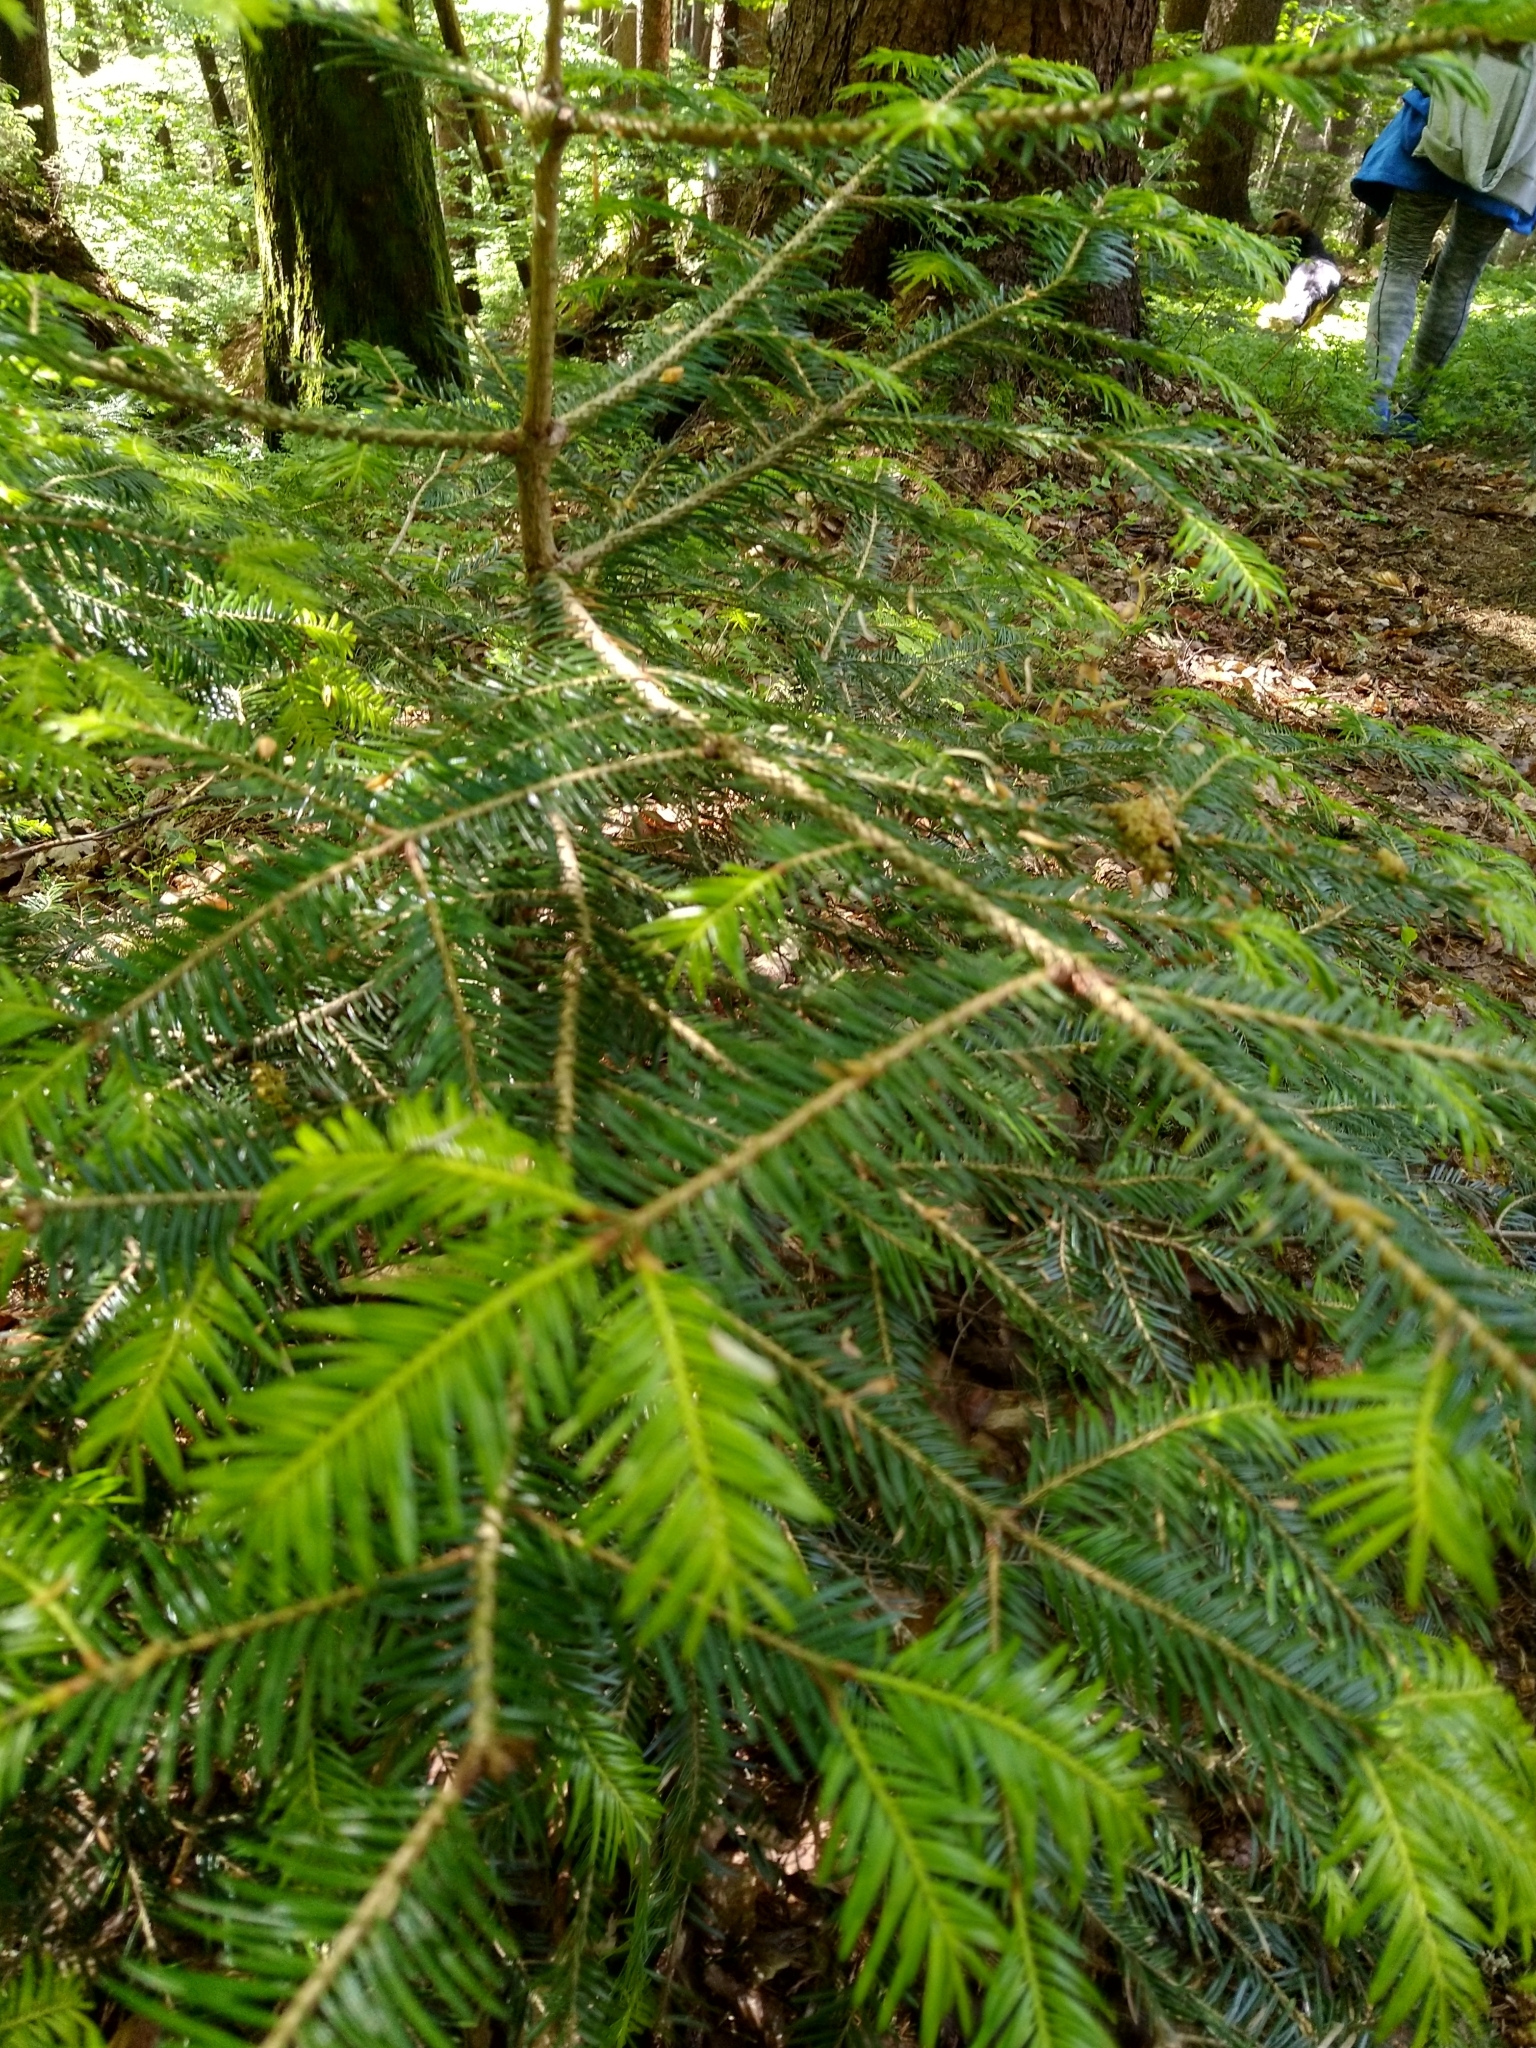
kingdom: Plantae
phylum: Tracheophyta
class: Pinopsida
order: Pinales
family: Pinaceae
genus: Abies
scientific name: Abies alba
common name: Silver fir
